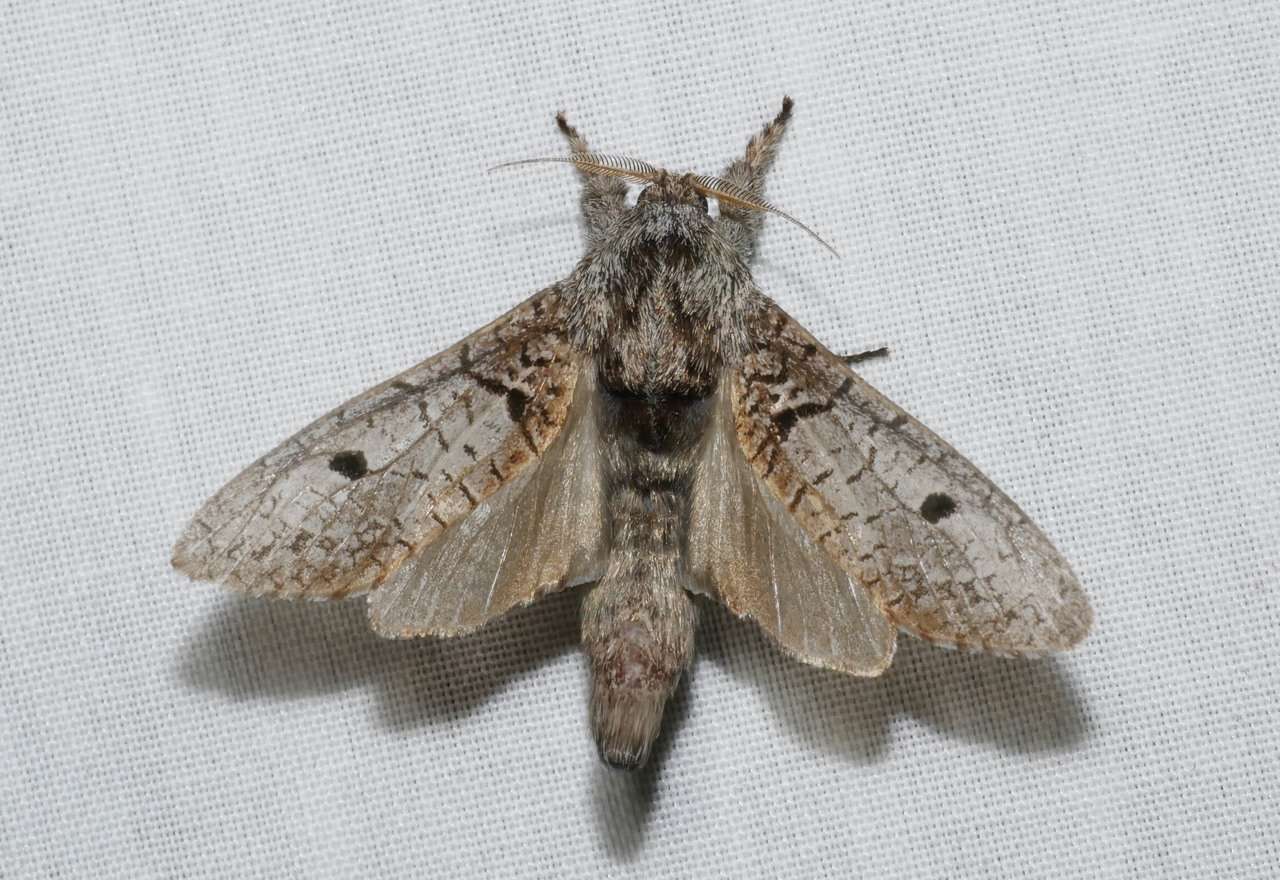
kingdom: Animalia
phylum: Arthropoda
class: Insecta
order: Lepidoptera
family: Cossidae
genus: Sympycnodes
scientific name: Sympycnodes
